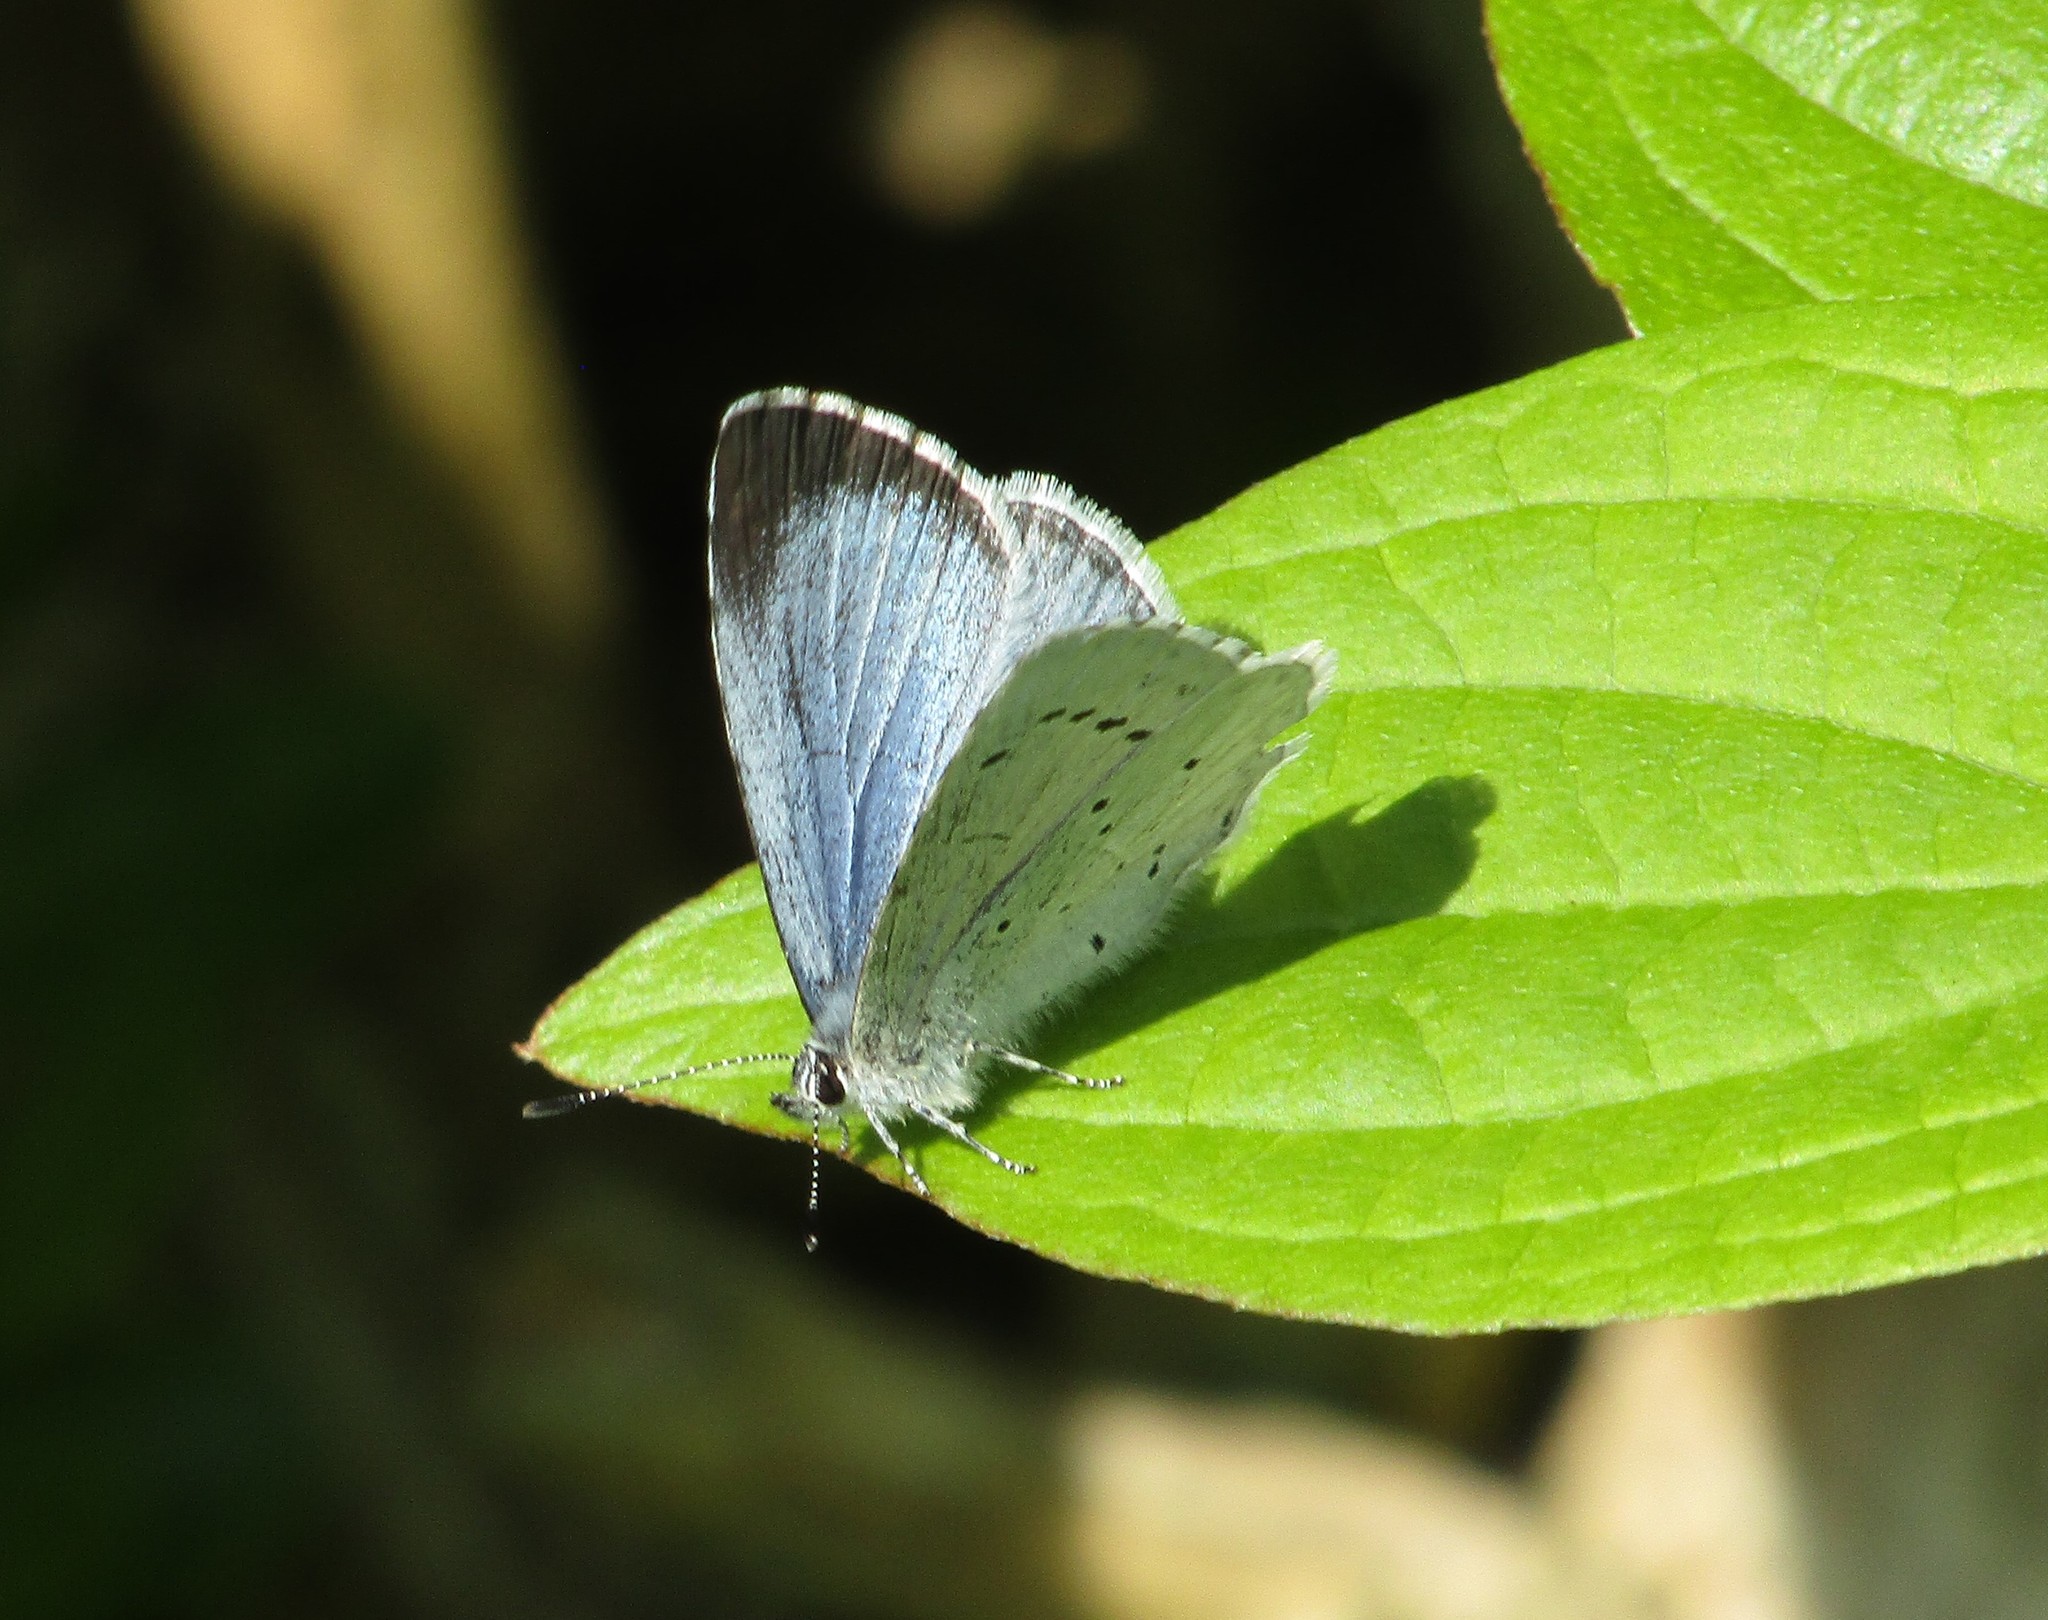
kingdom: Animalia
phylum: Arthropoda
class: Insecta
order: Lepidoptera
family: Lycaenidae
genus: Celastrina
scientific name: Celastrina argiolus
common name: Holly blue
